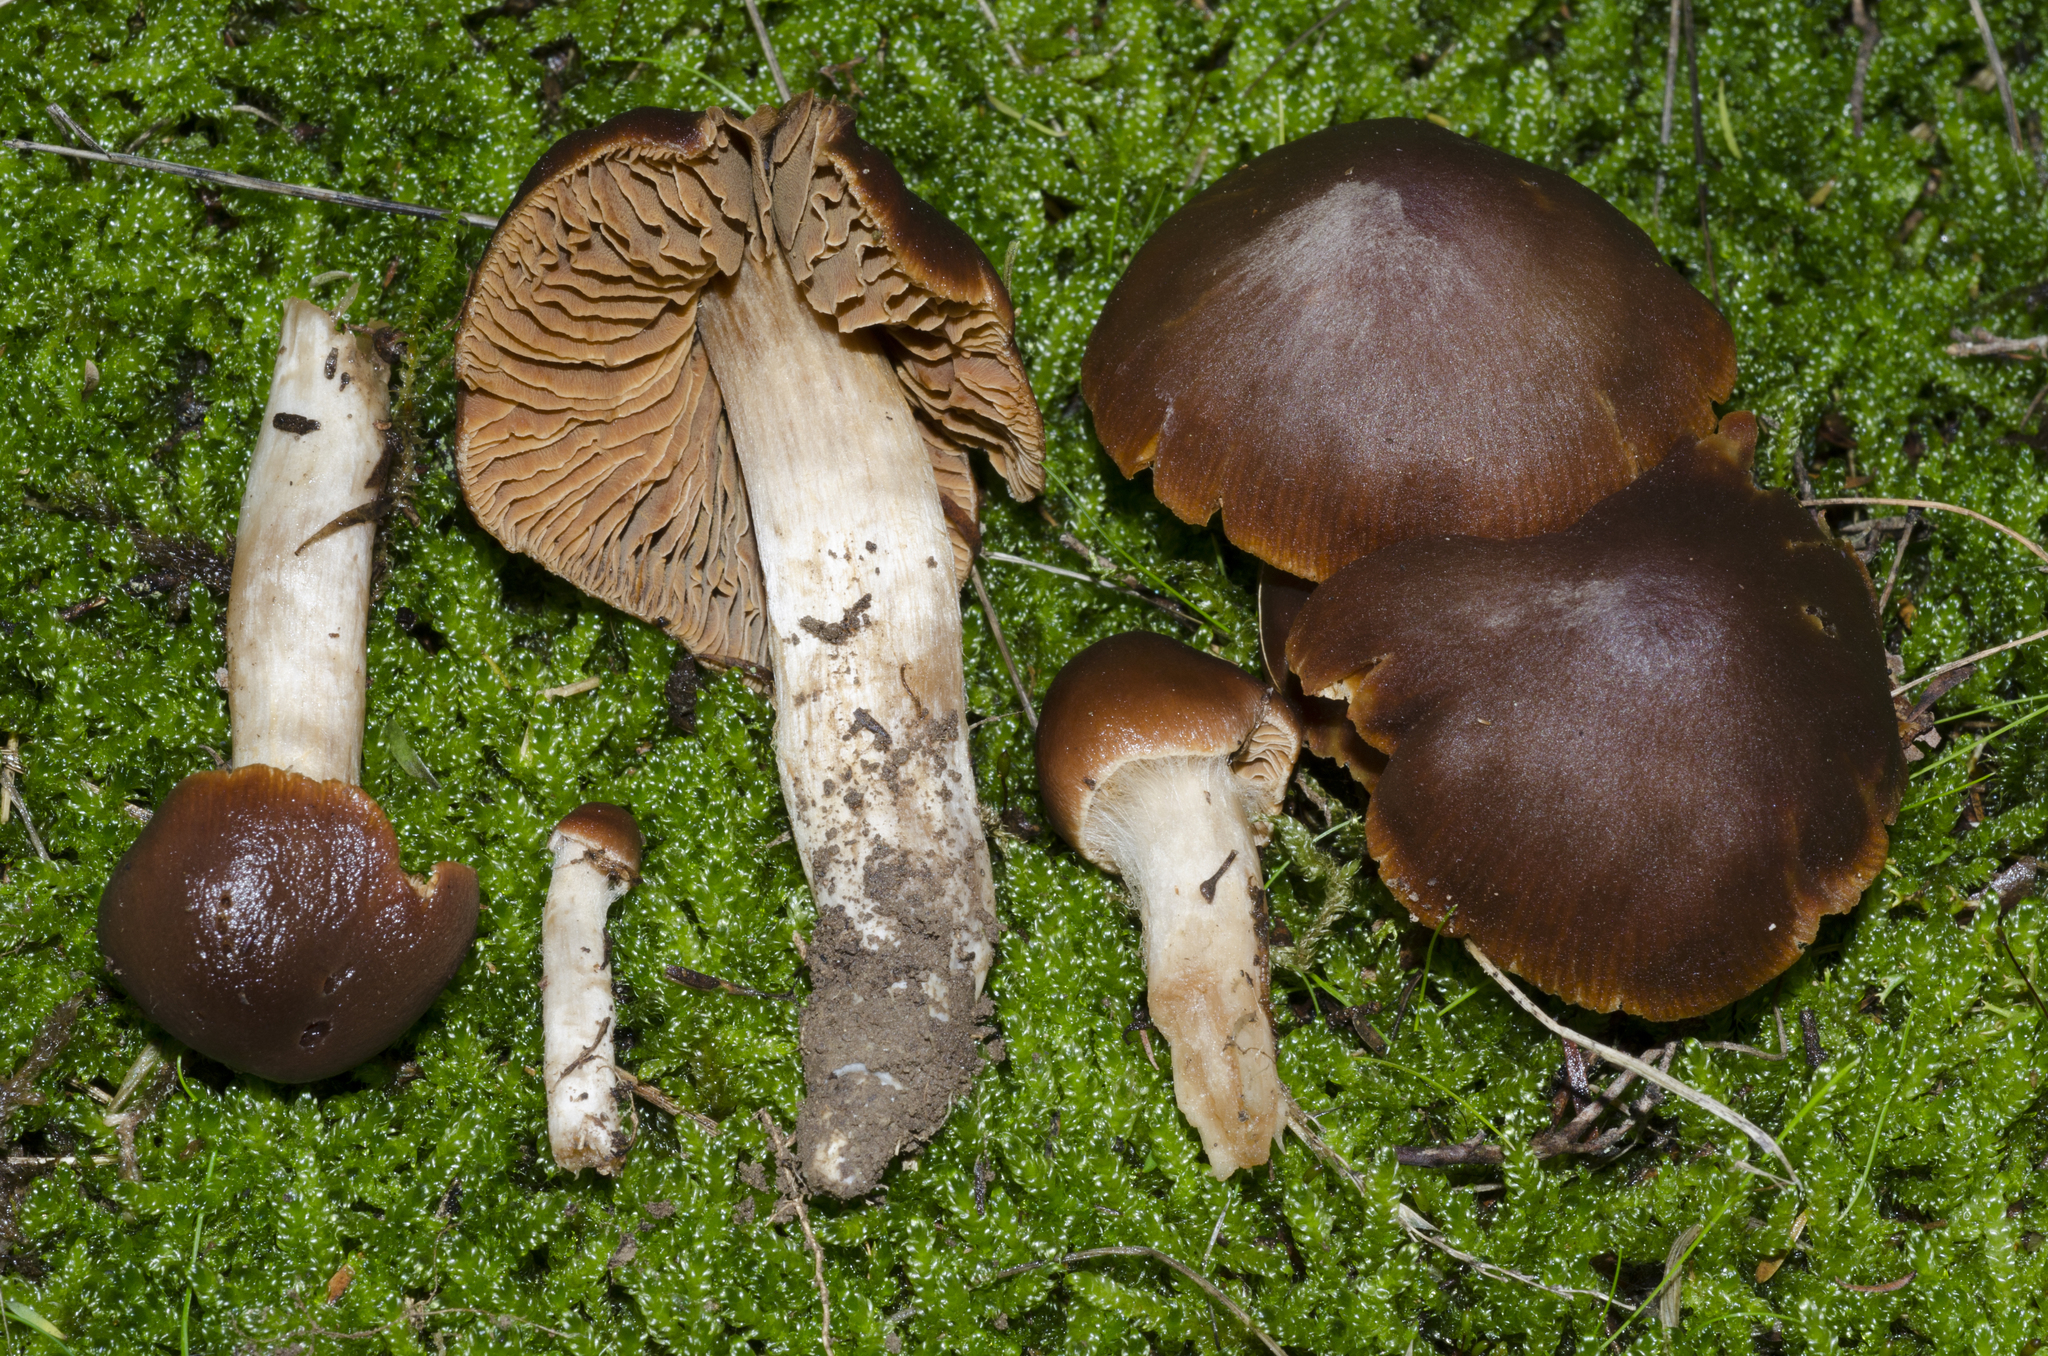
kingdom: Fungi
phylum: Basidiomycota
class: Agaricomycetes
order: Agaricales
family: Cortinariaceae
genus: Cortinarius
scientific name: Cortinarius minilacus
